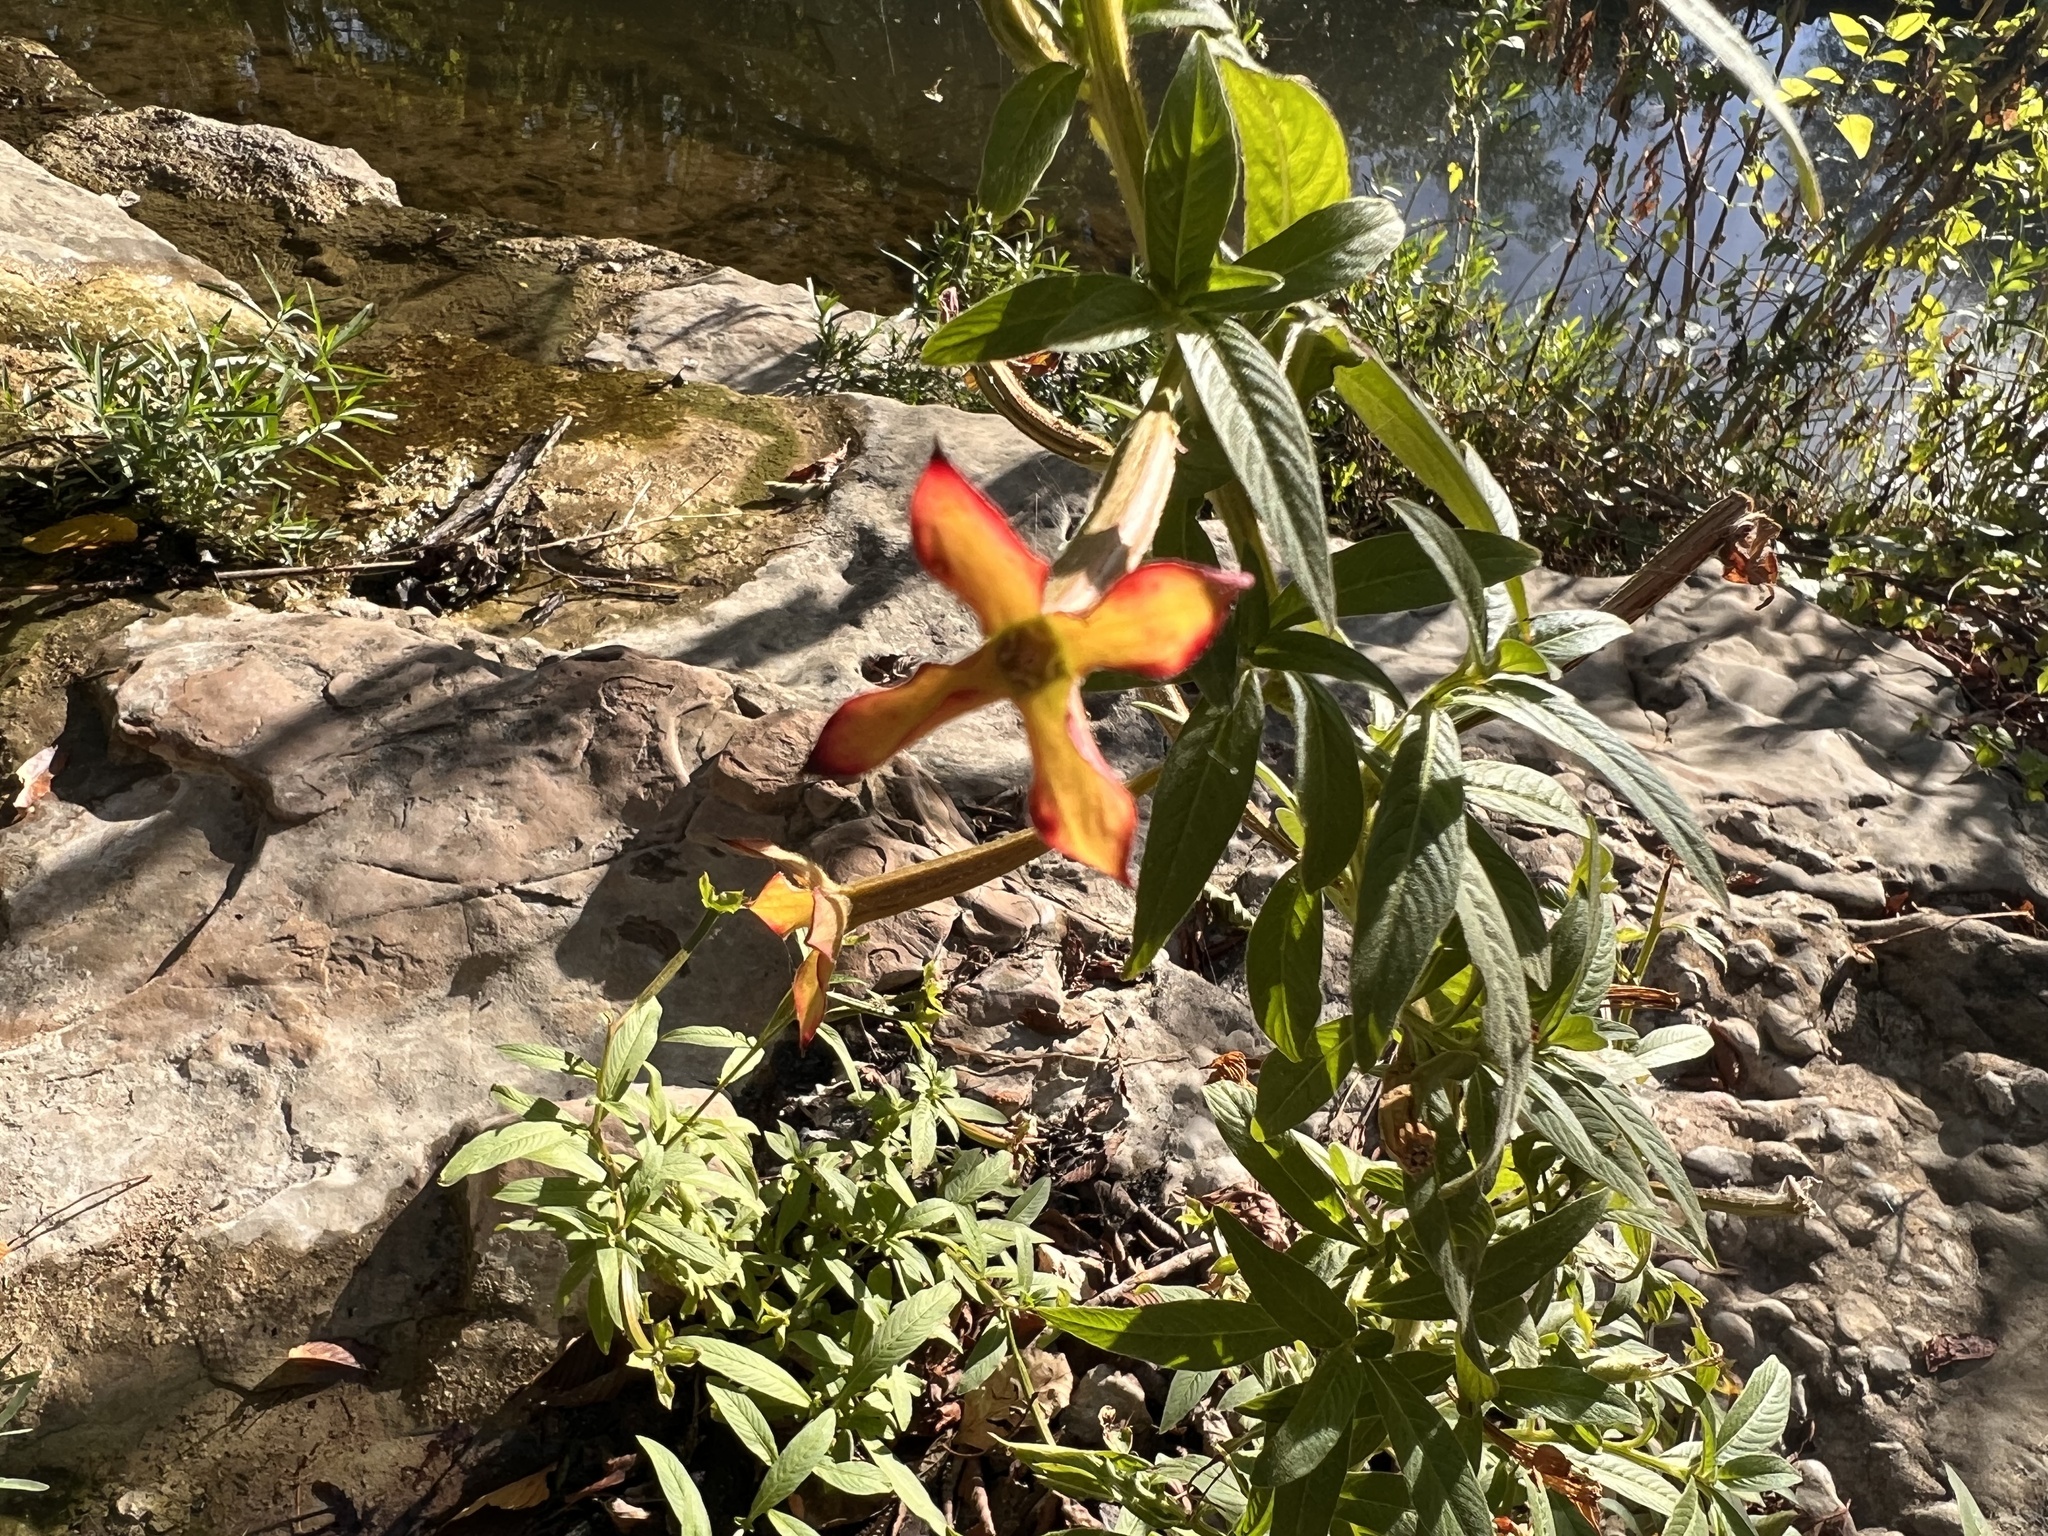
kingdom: Plantae
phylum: Tracheophyta
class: Magnoliopsida
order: Myrtales
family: Onagraceae
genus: Ludwigia
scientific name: Ludwigia octovalvis
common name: Water-primrose
